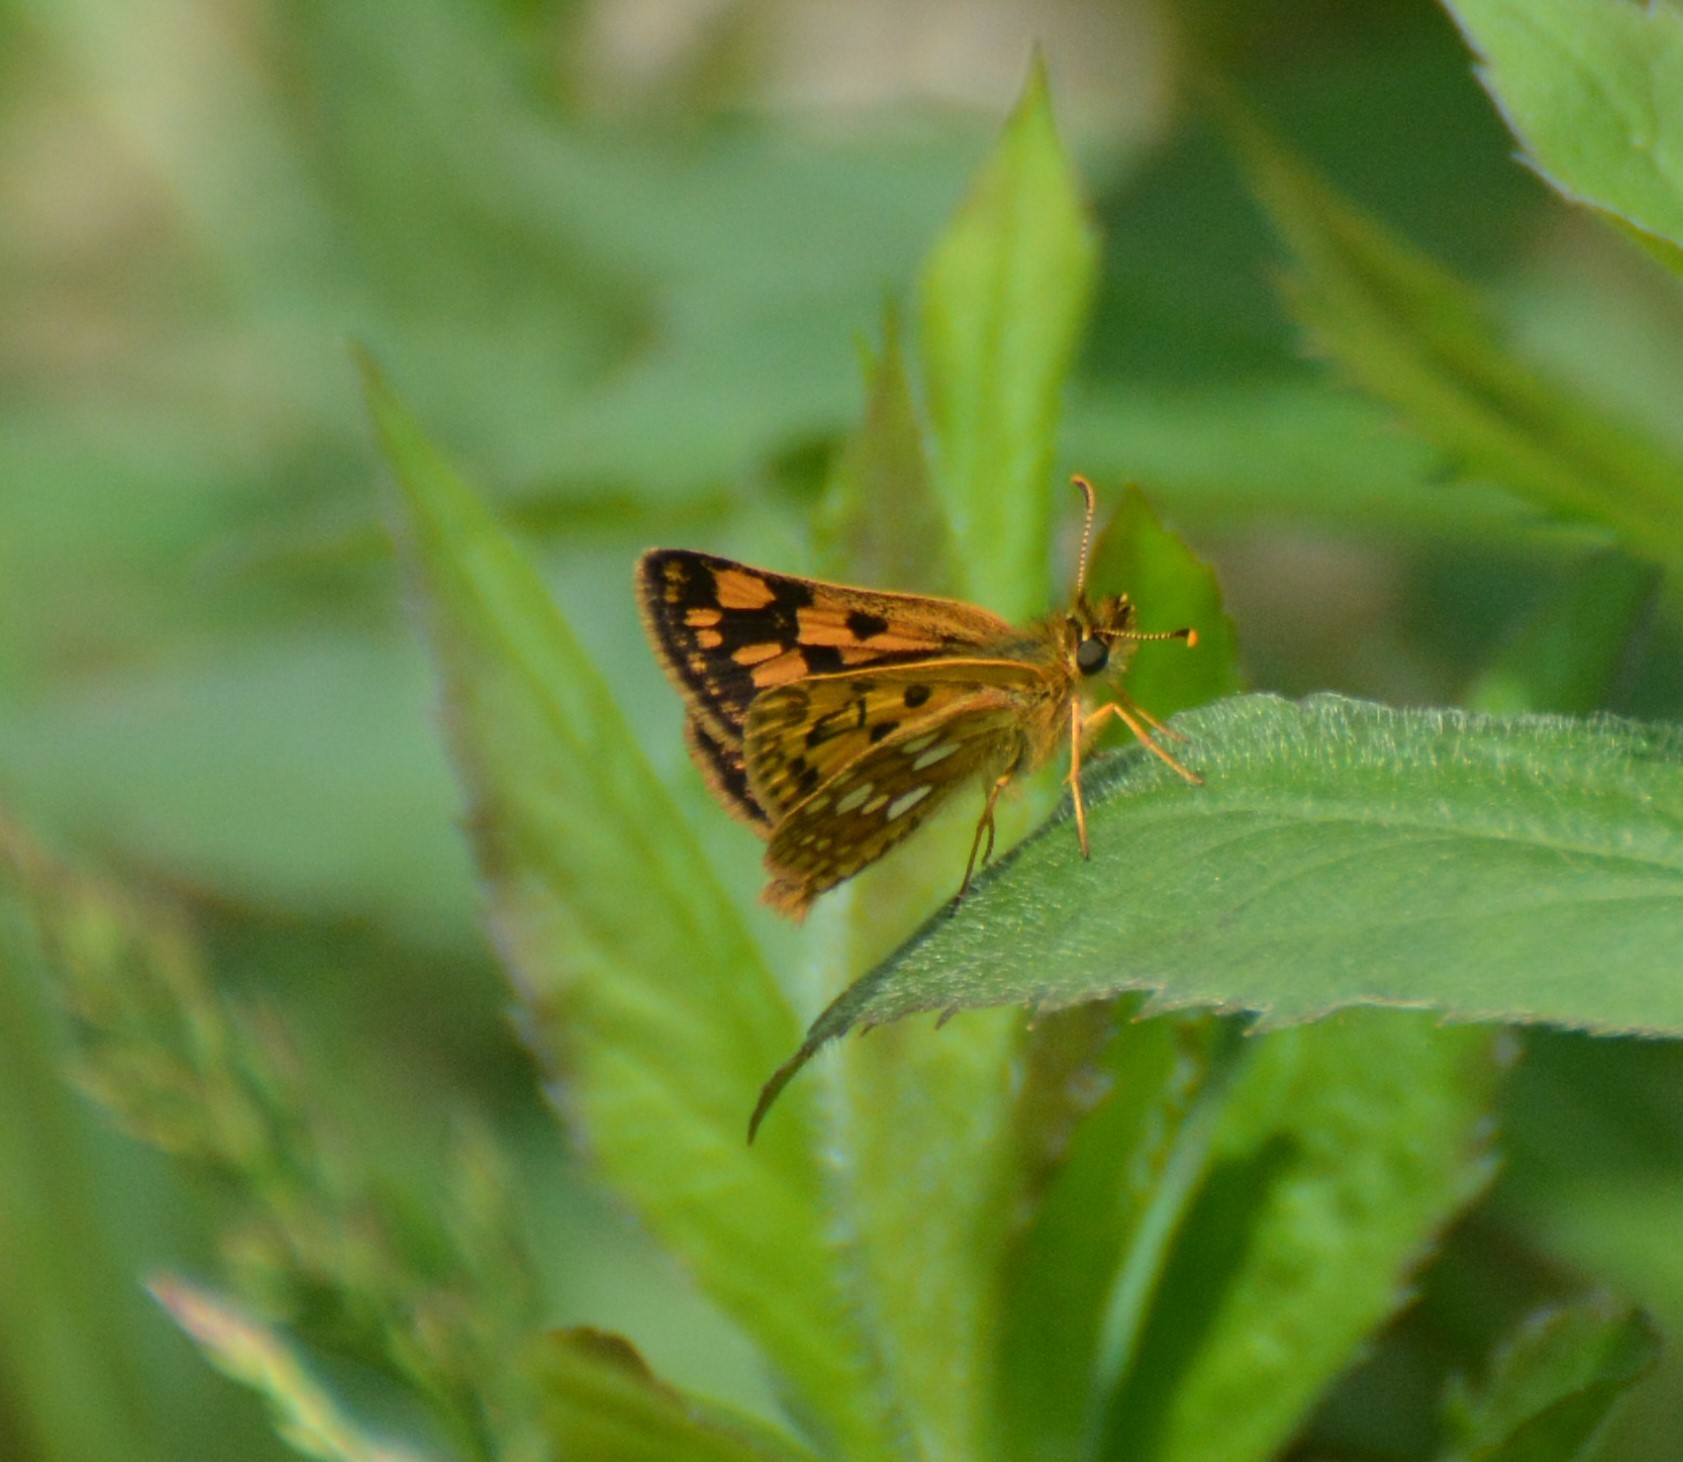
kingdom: Animalia
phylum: Arthropoda
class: Insecta
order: Lepidoptera
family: Hesperiidae
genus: Carterocephalus
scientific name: Carterocephalus mandan
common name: Arctic skipperling
